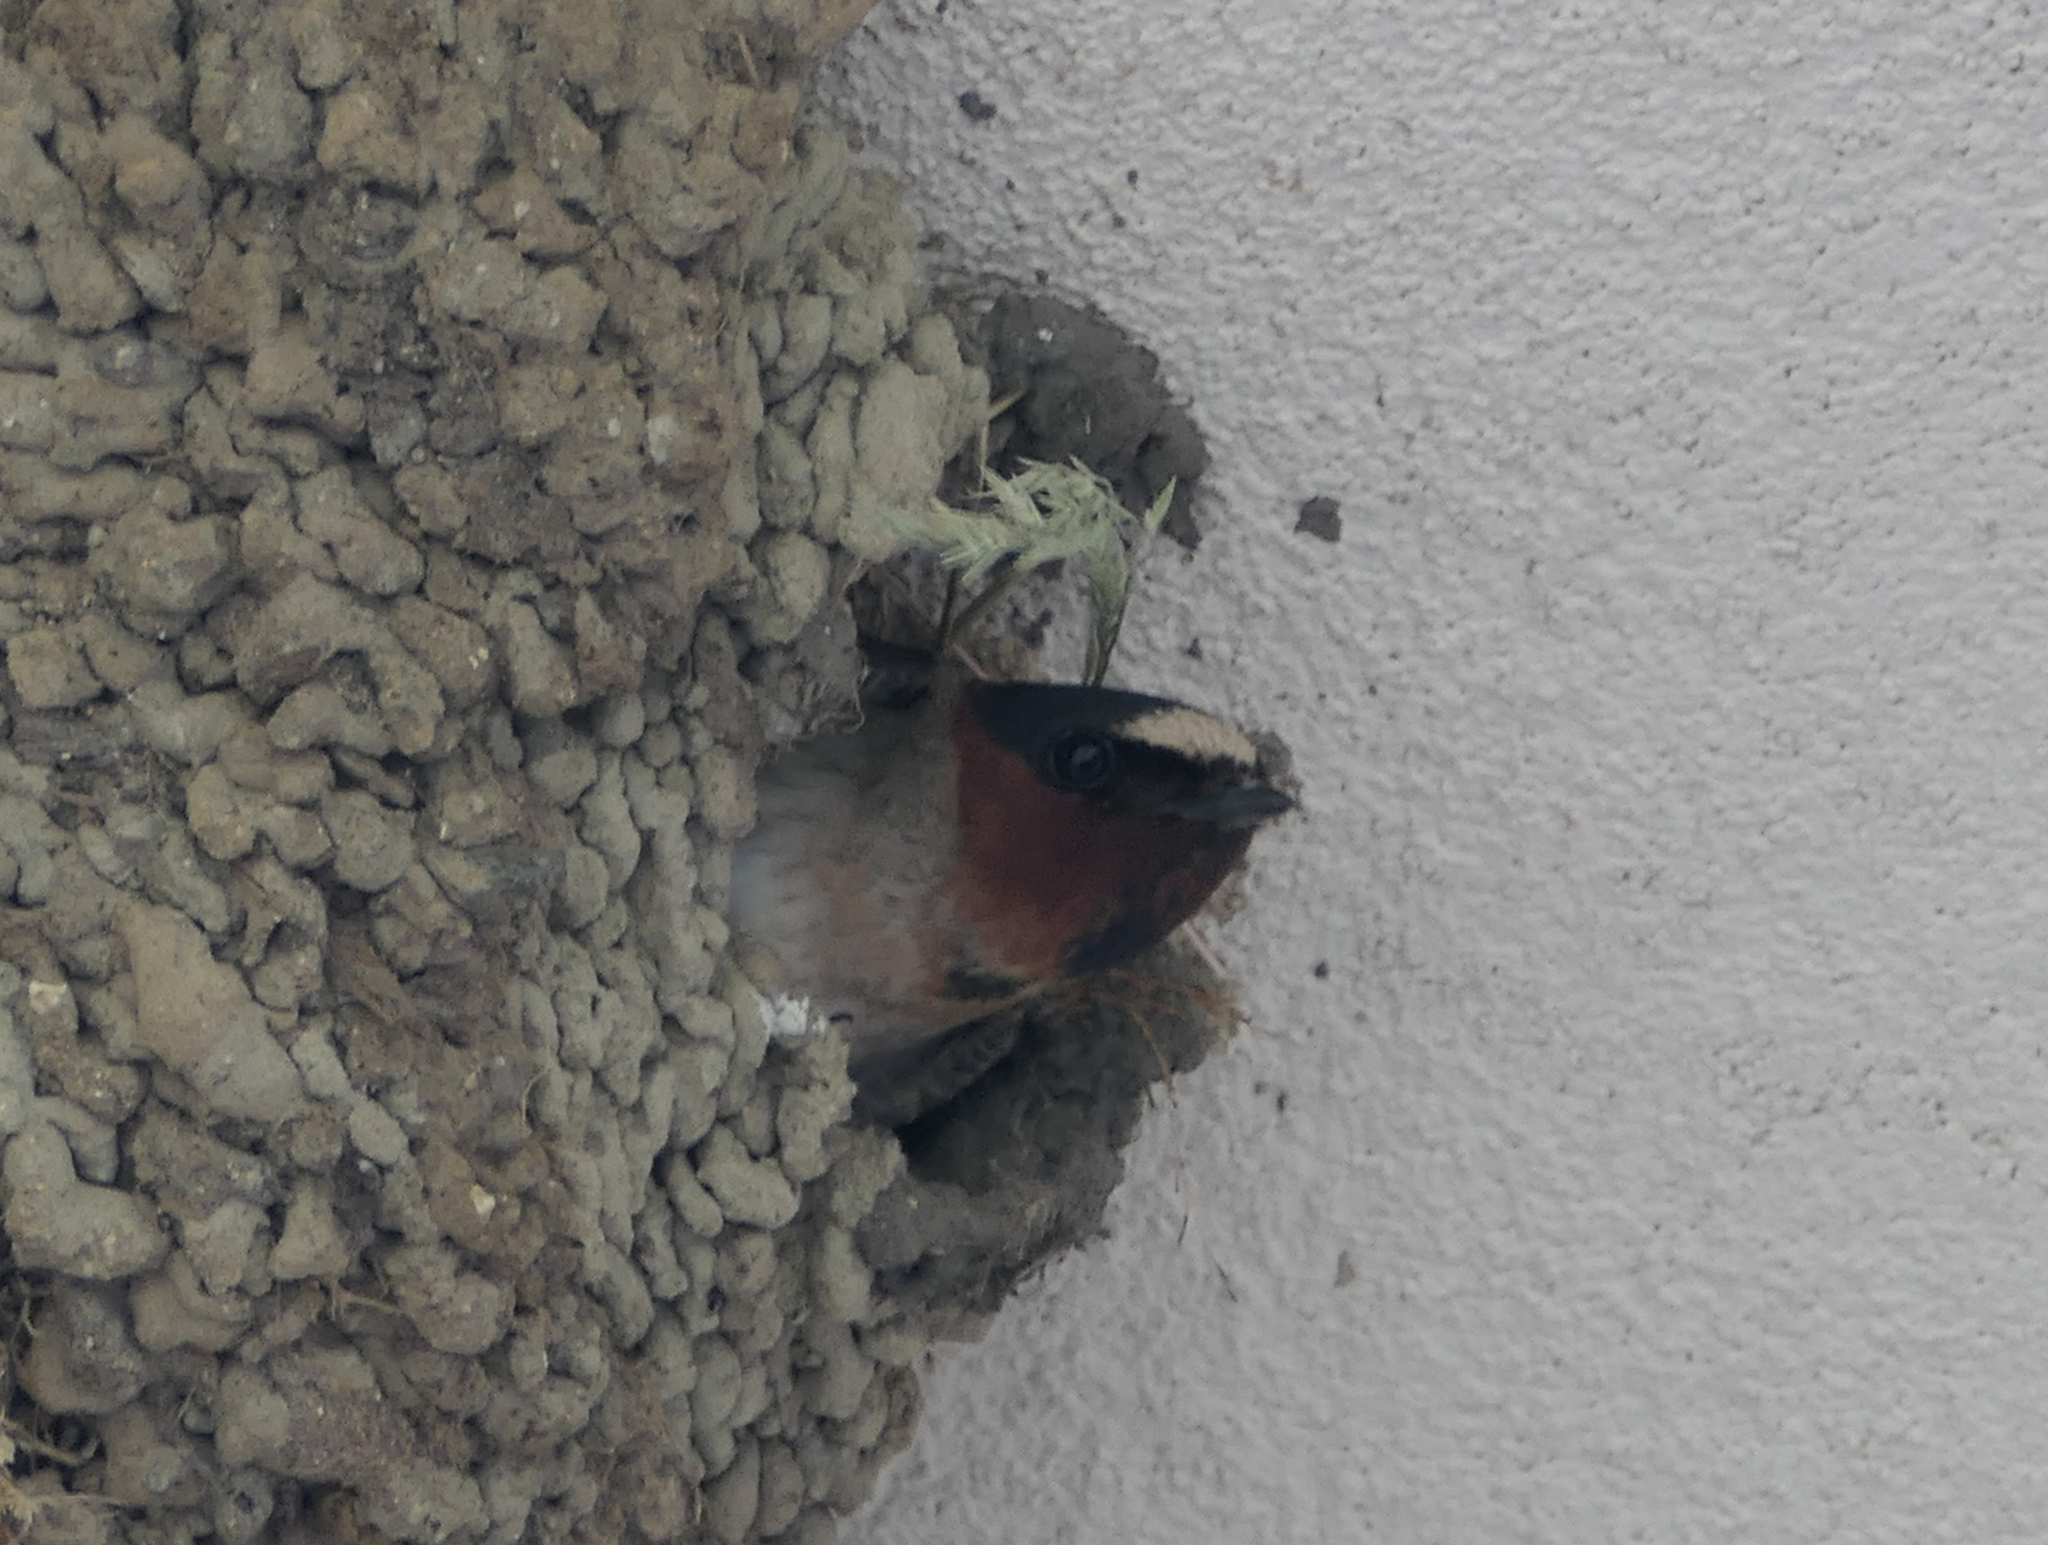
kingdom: Animalia
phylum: Chordata
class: Aves
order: Passeriformes
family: Hirundinidae
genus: Petrochelidon
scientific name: Petrochelidon pyrrhonota
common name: American cliff swallow
